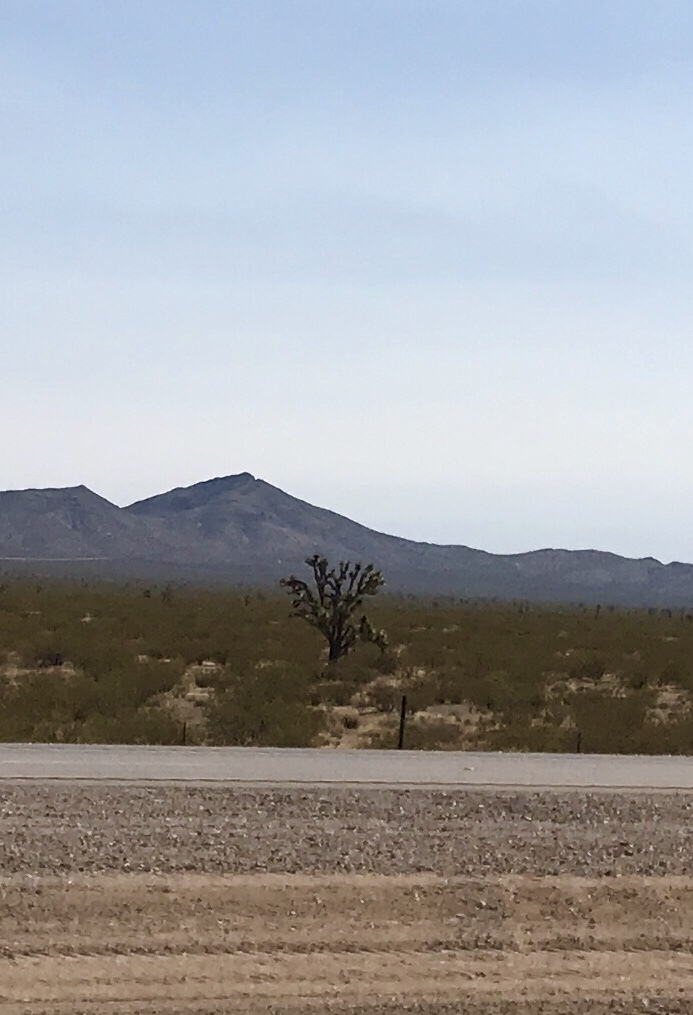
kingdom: Plantae
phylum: Tracheophyta
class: Liliopsida
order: Asparagales
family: Asparagaceae
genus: Yucca
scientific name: Yucca brevifolia
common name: Joshua tree
